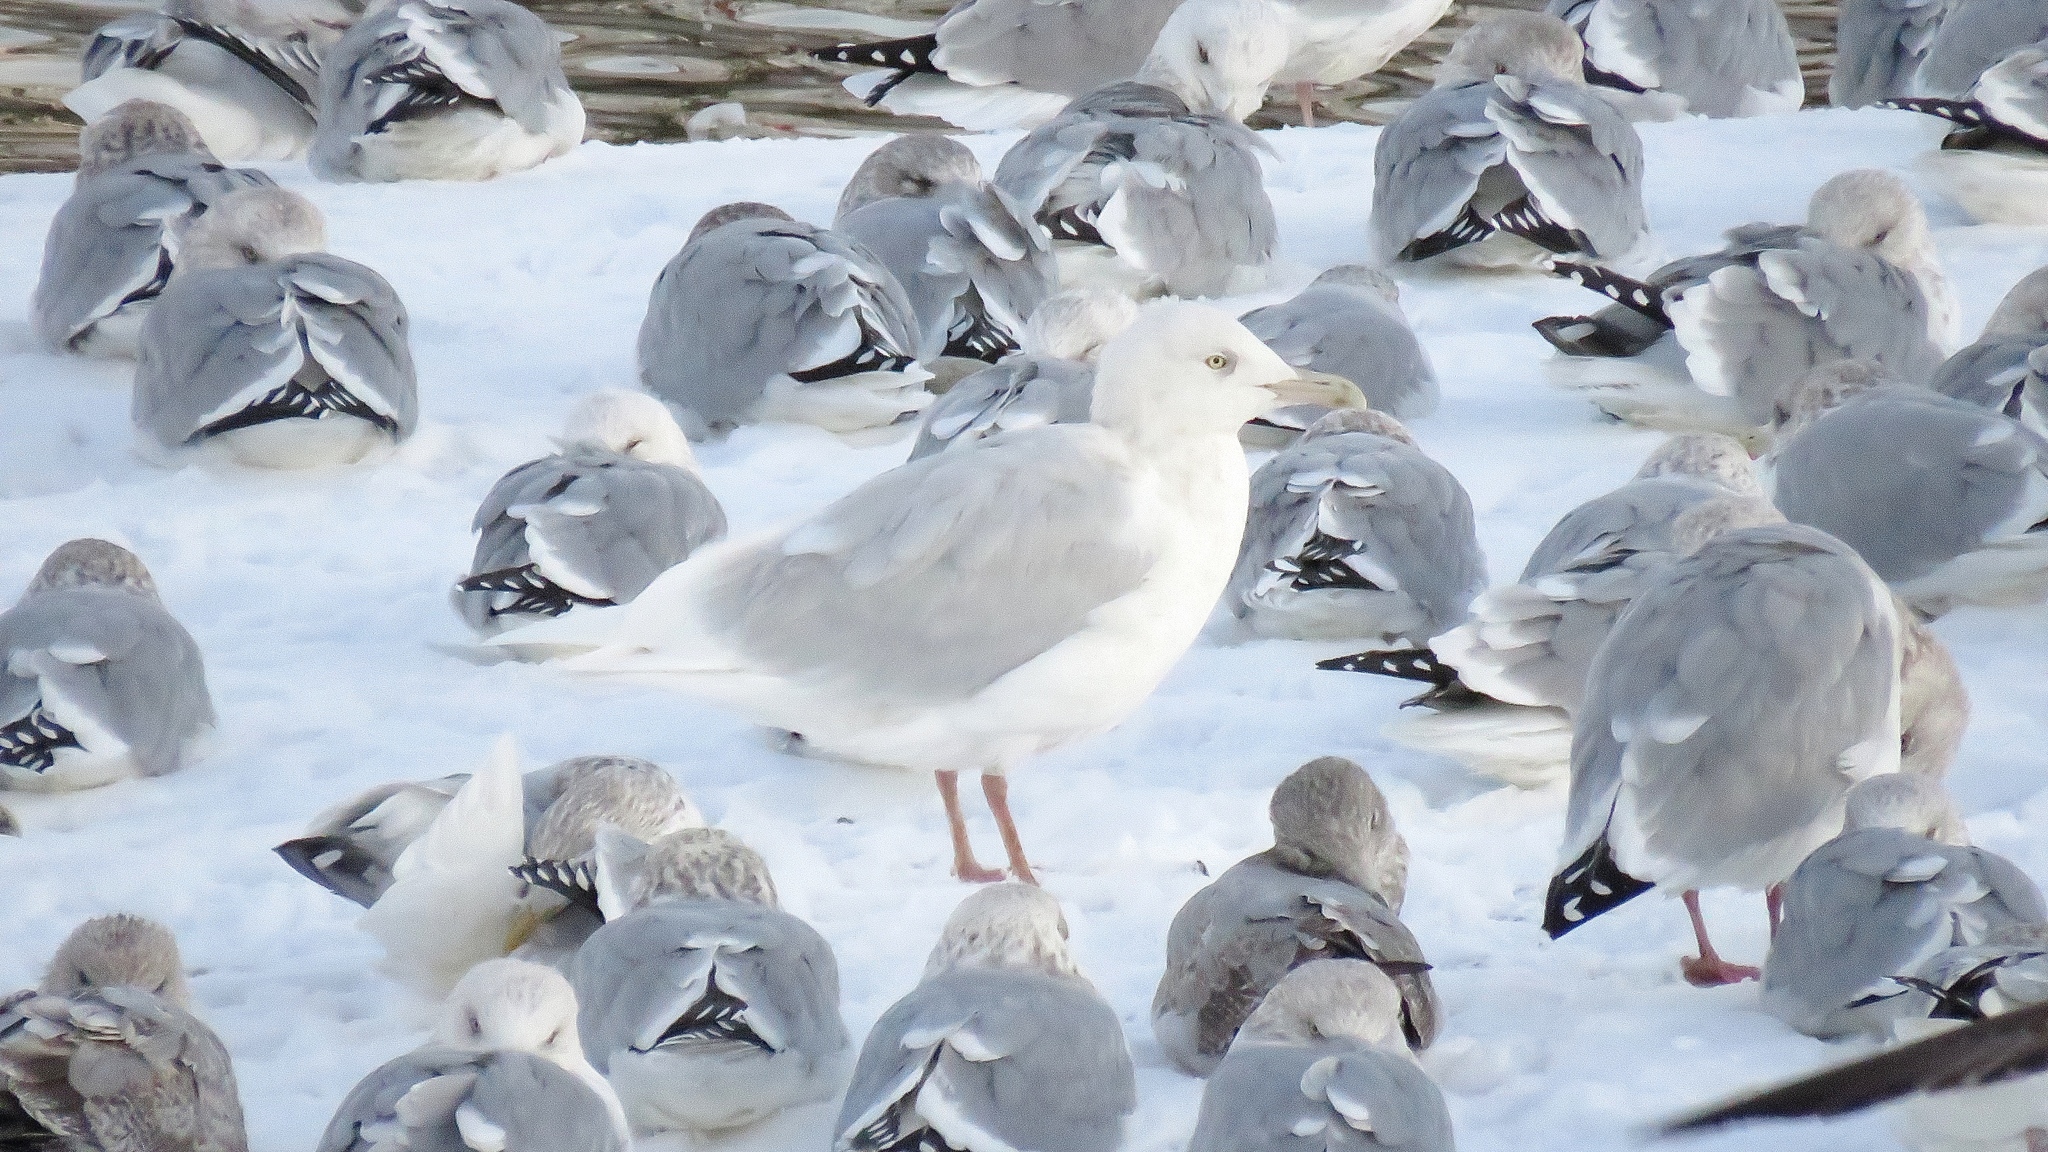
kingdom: Animalia
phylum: Chordata
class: Aves
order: Charadriiformes
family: Laridae
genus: Larus
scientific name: Larus hyperboreus
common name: Glaucous gull
